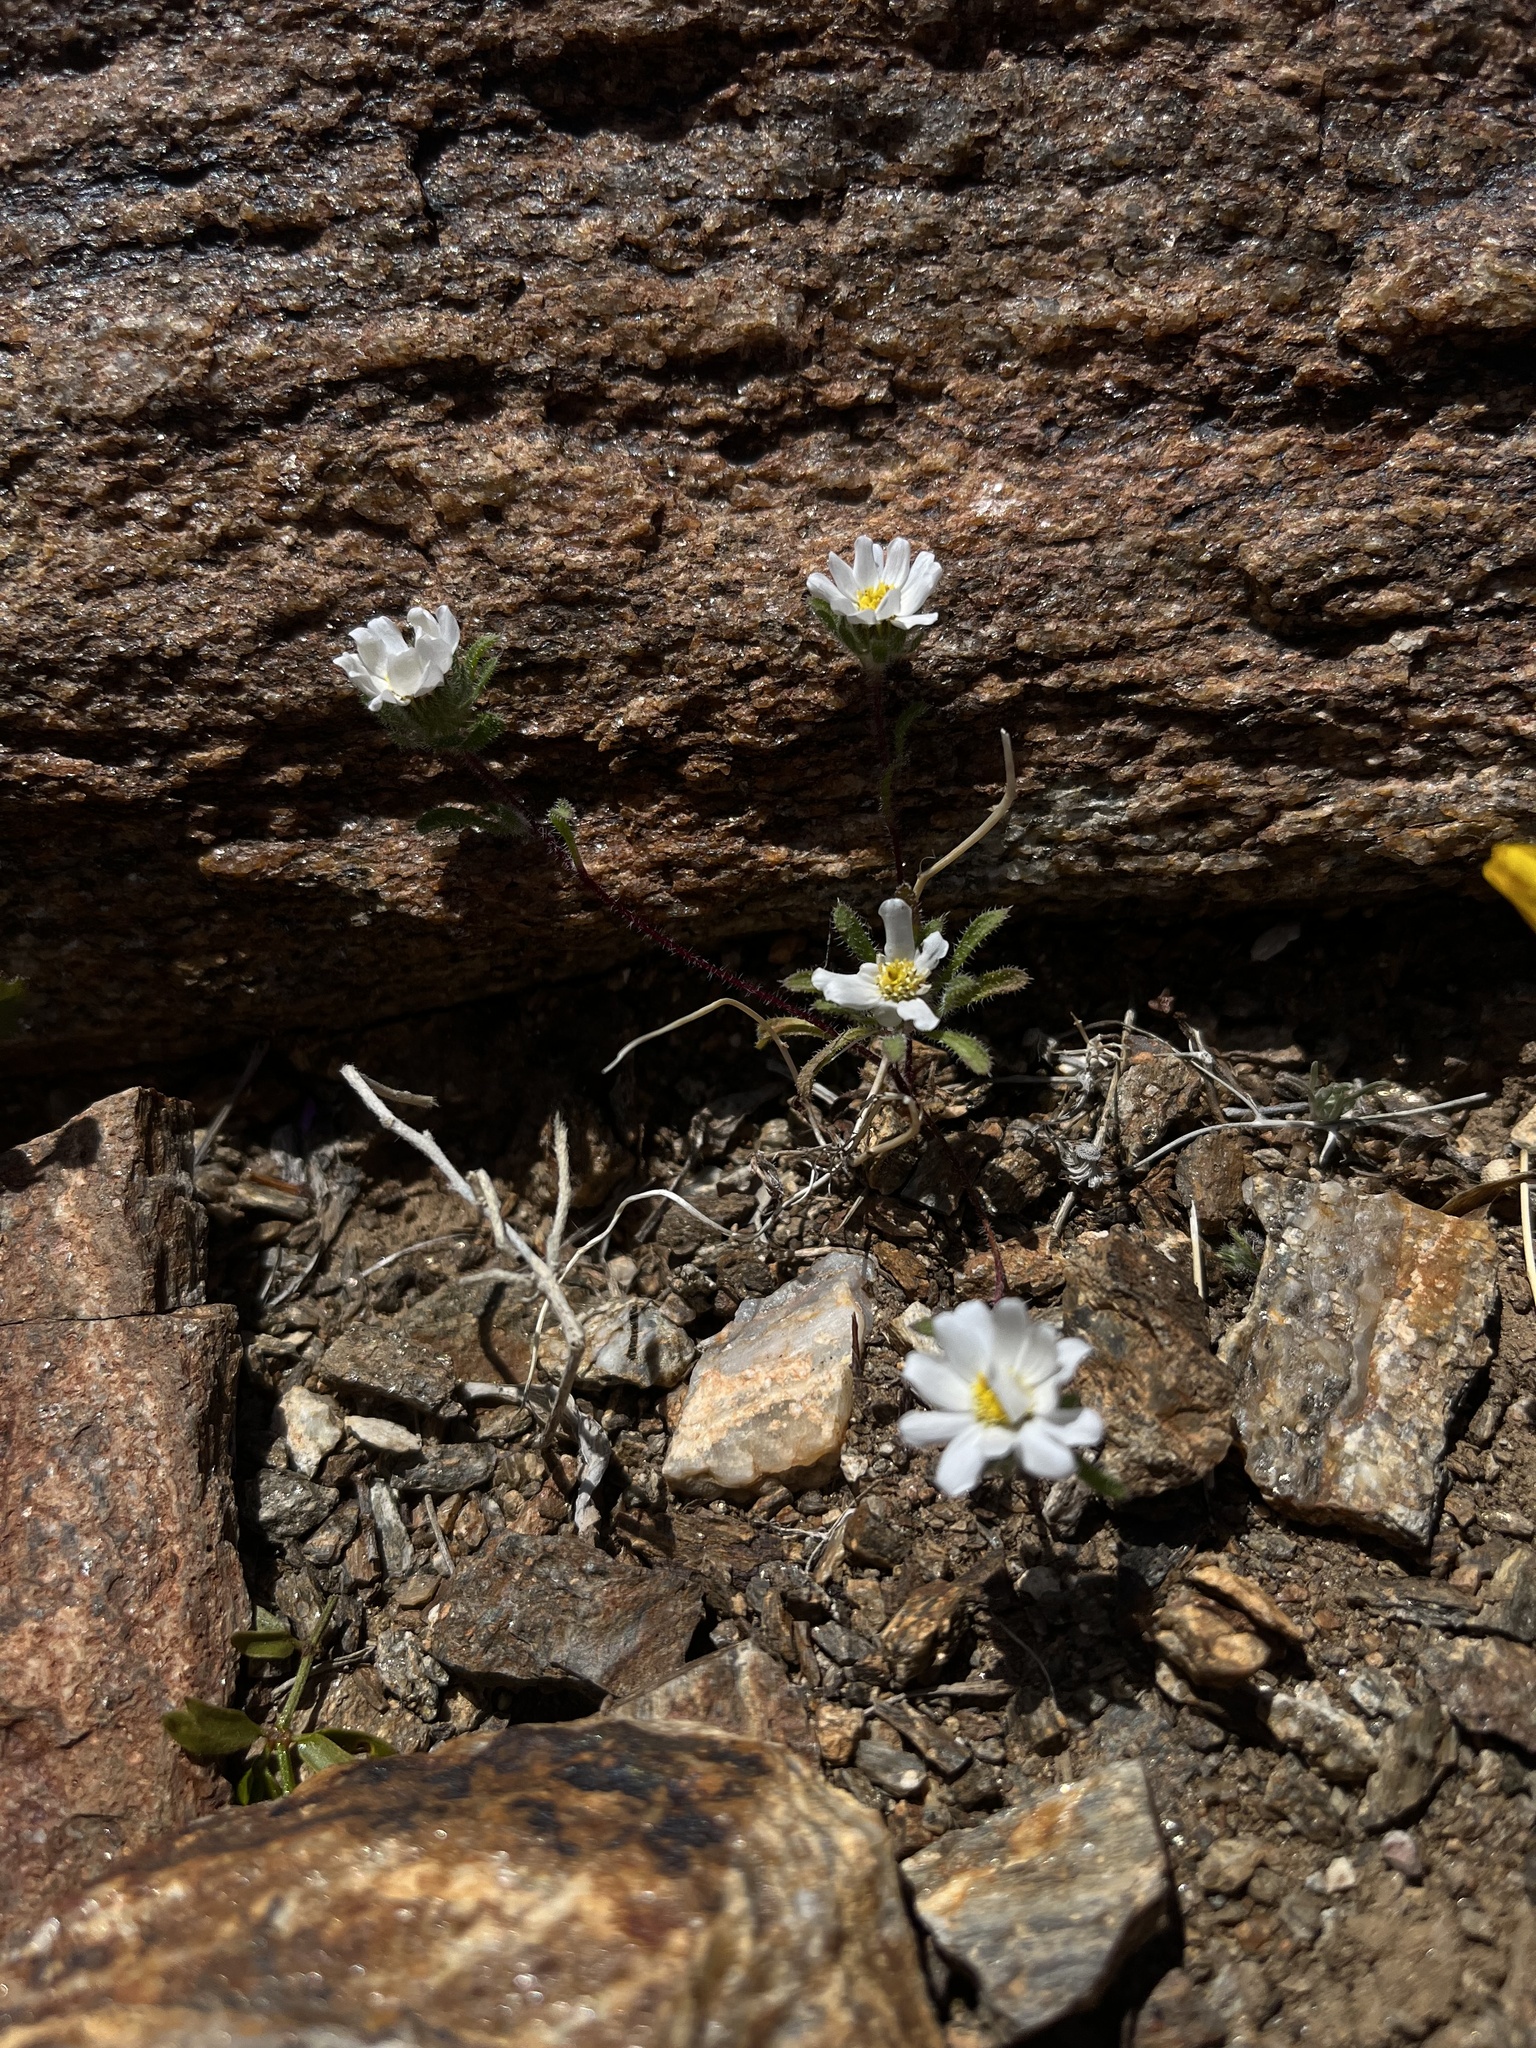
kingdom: Plantae
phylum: Tracheophyta
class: Magnoliopsida
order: Asterales
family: Asteraceae
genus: Monoptilon
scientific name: Monoptilon bellioides
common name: Bristly desertstar
